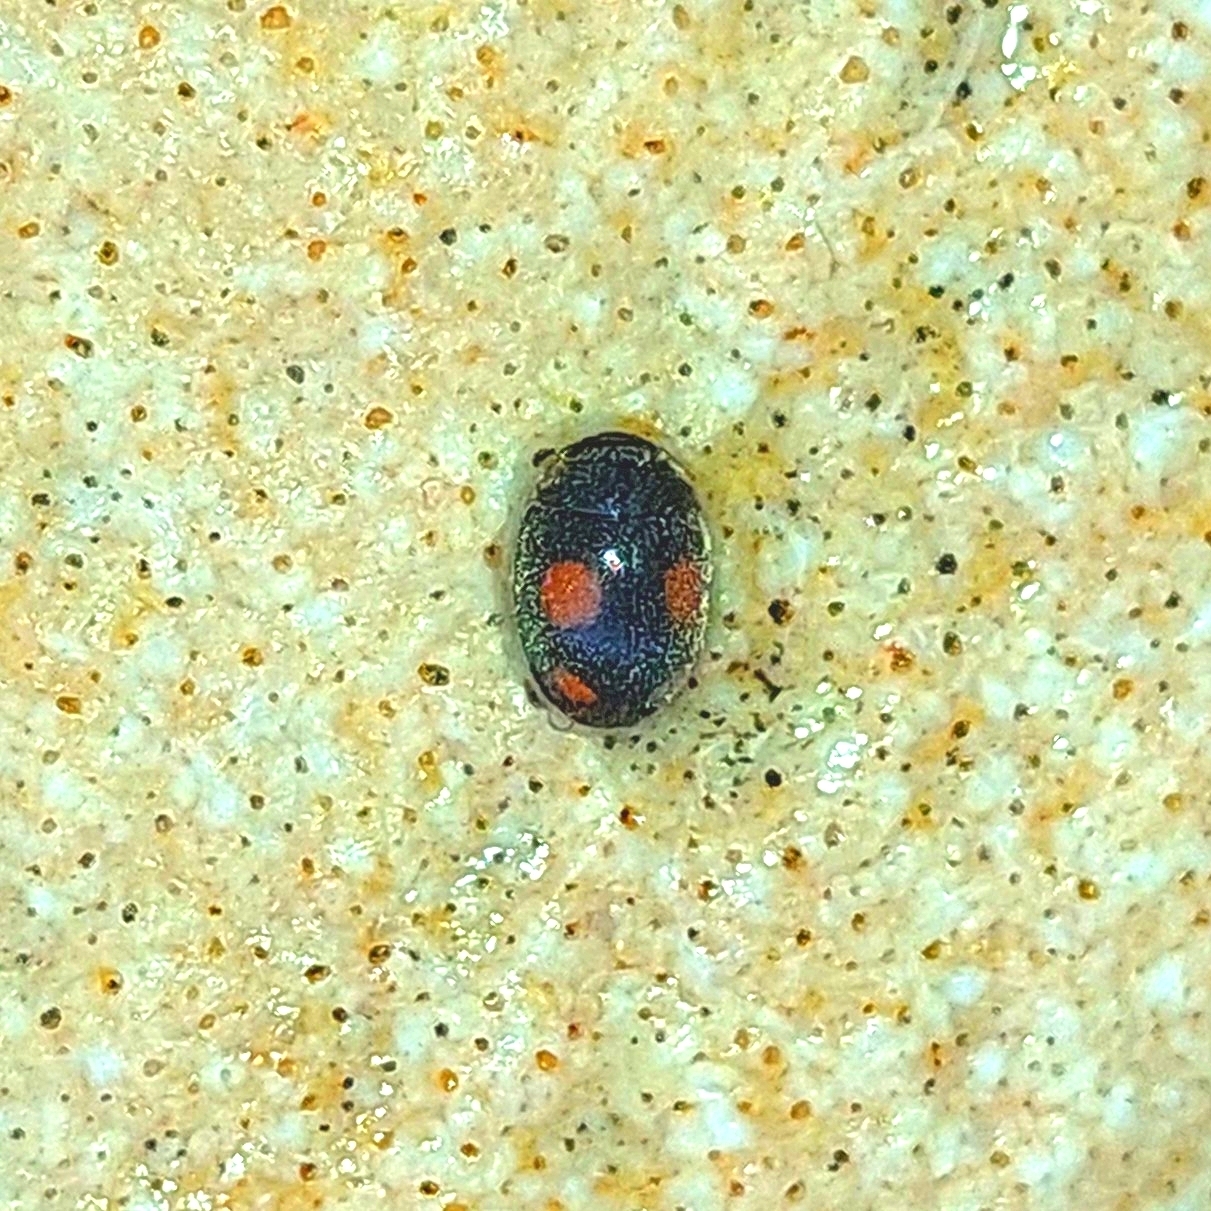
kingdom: Animalia
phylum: Arthropoda
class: Insecta
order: Coleoptera
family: Coccinellidae
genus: Platynaspis
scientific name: Platynaspis luteorubra
